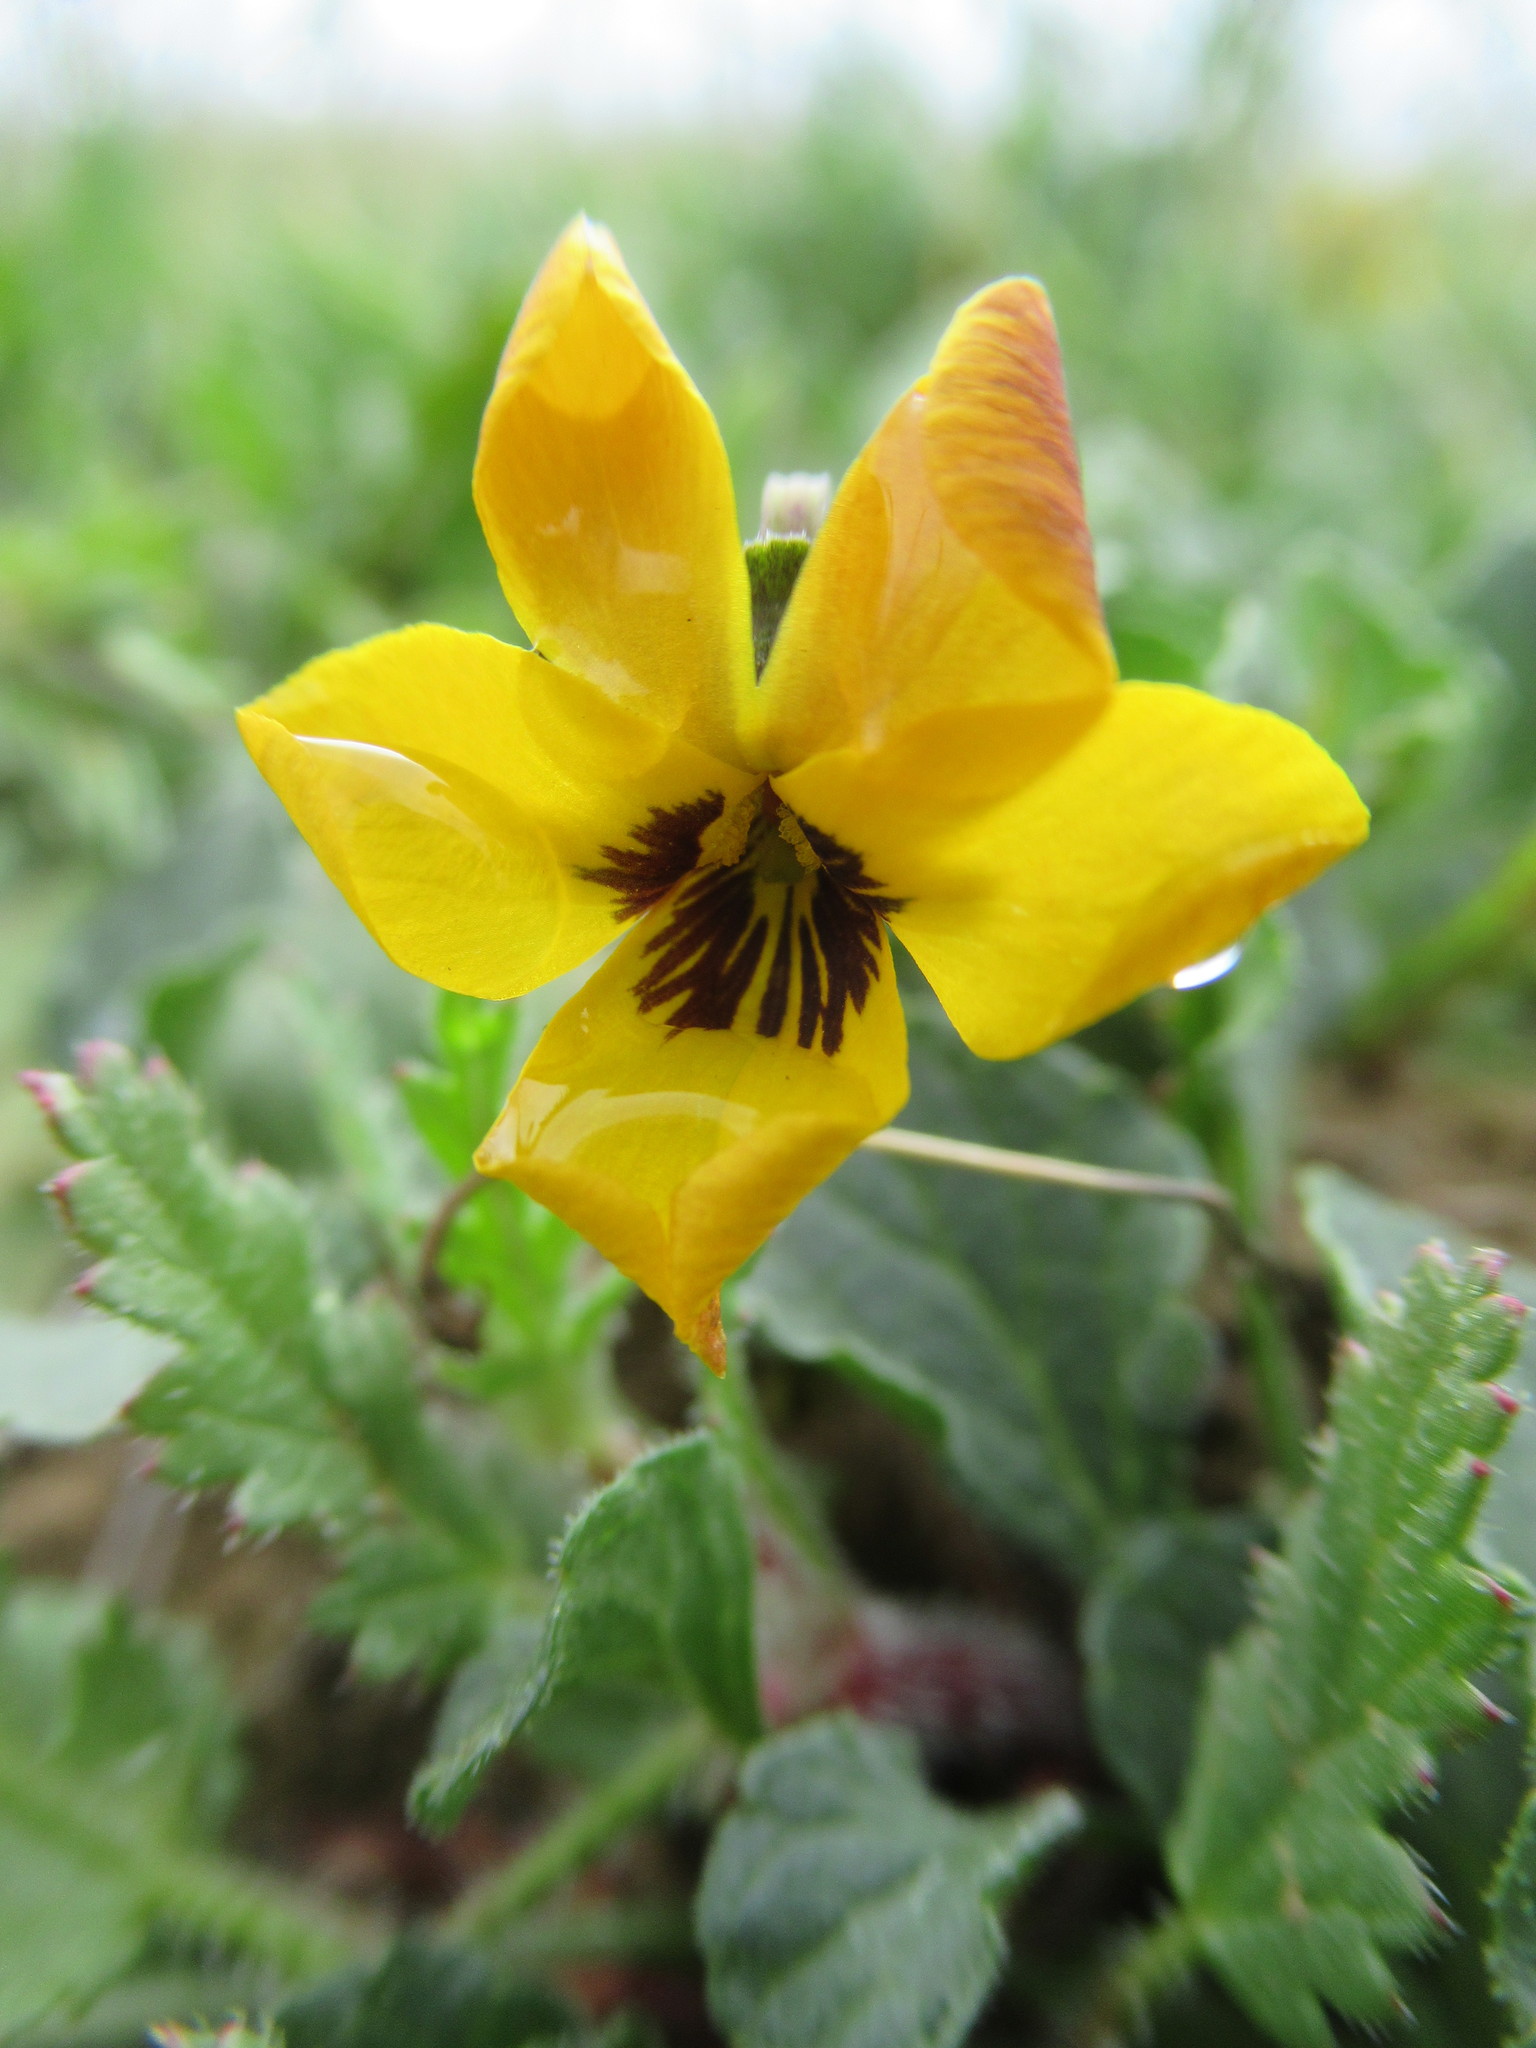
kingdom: Plantae
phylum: Tracheophyta
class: Magnoliopsida
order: Malpighiales
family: Violaceae
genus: Viola
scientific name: Viola pedunculata
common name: California golden violet
